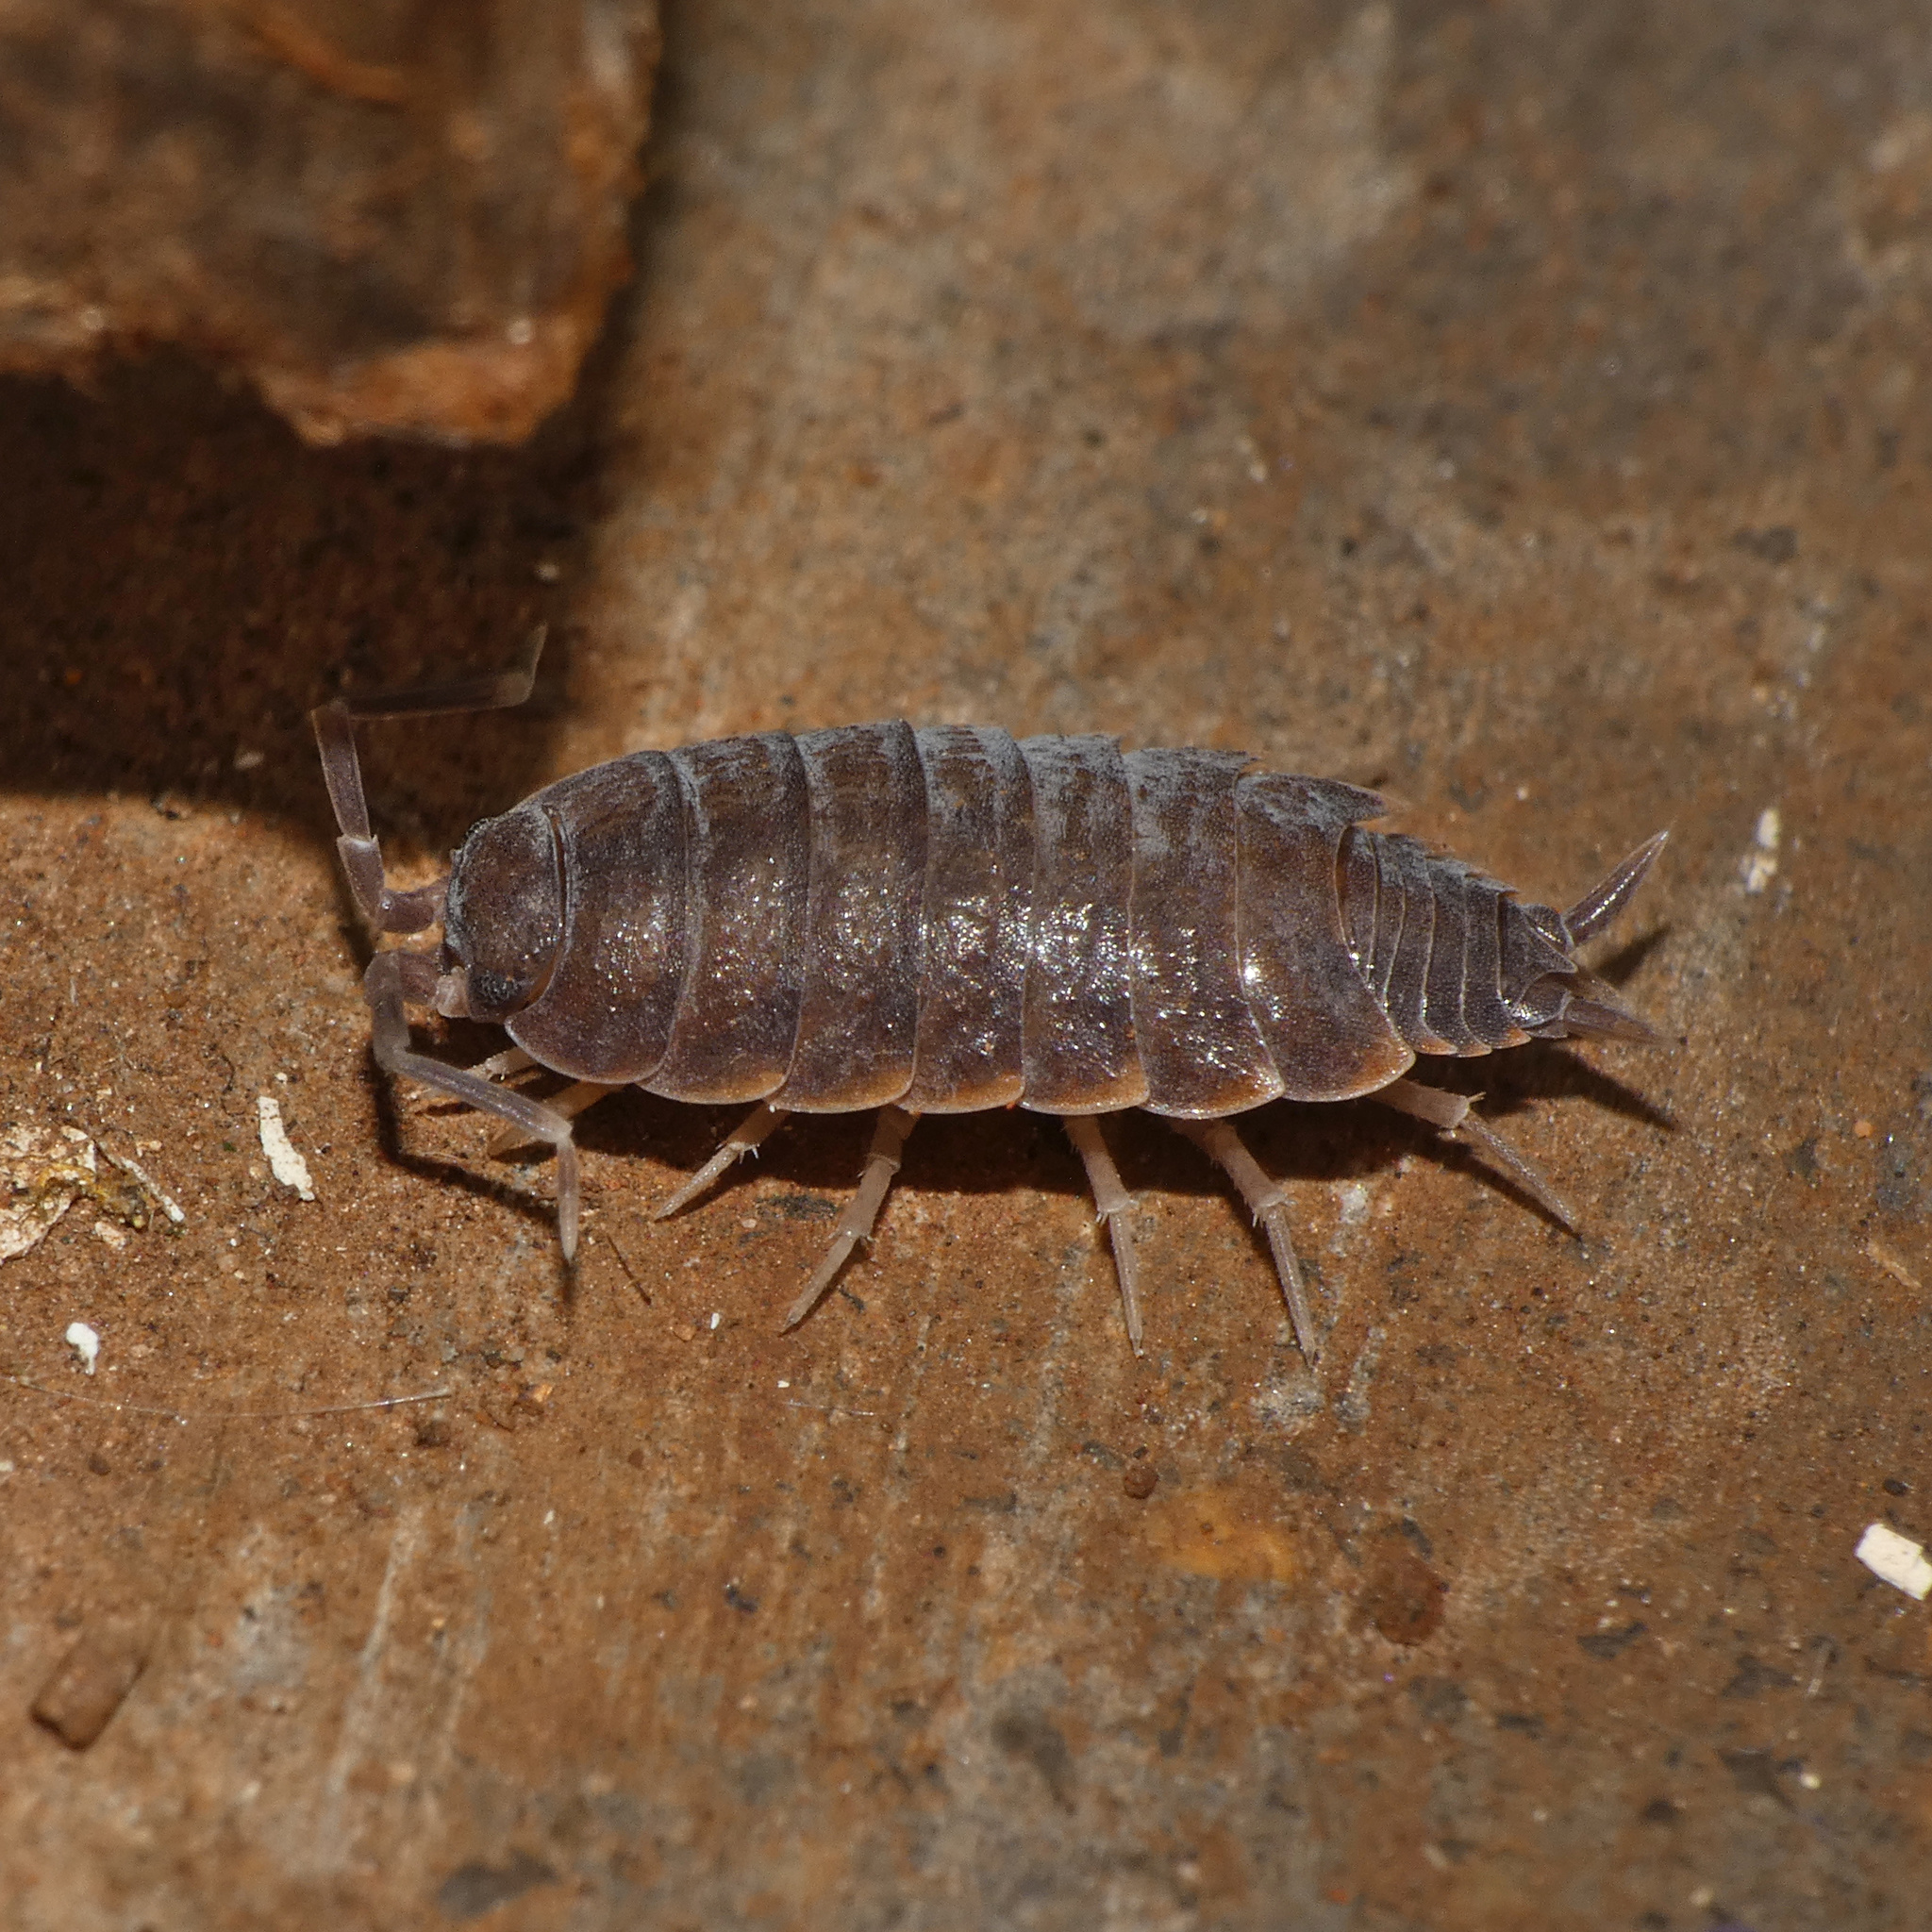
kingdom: Animalia
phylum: Arthropoda
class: Malacostraca
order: Isopoda
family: Porcellionidae
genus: Porcellionides
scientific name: Porcellionides pruinosus
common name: Plum woodlouse
